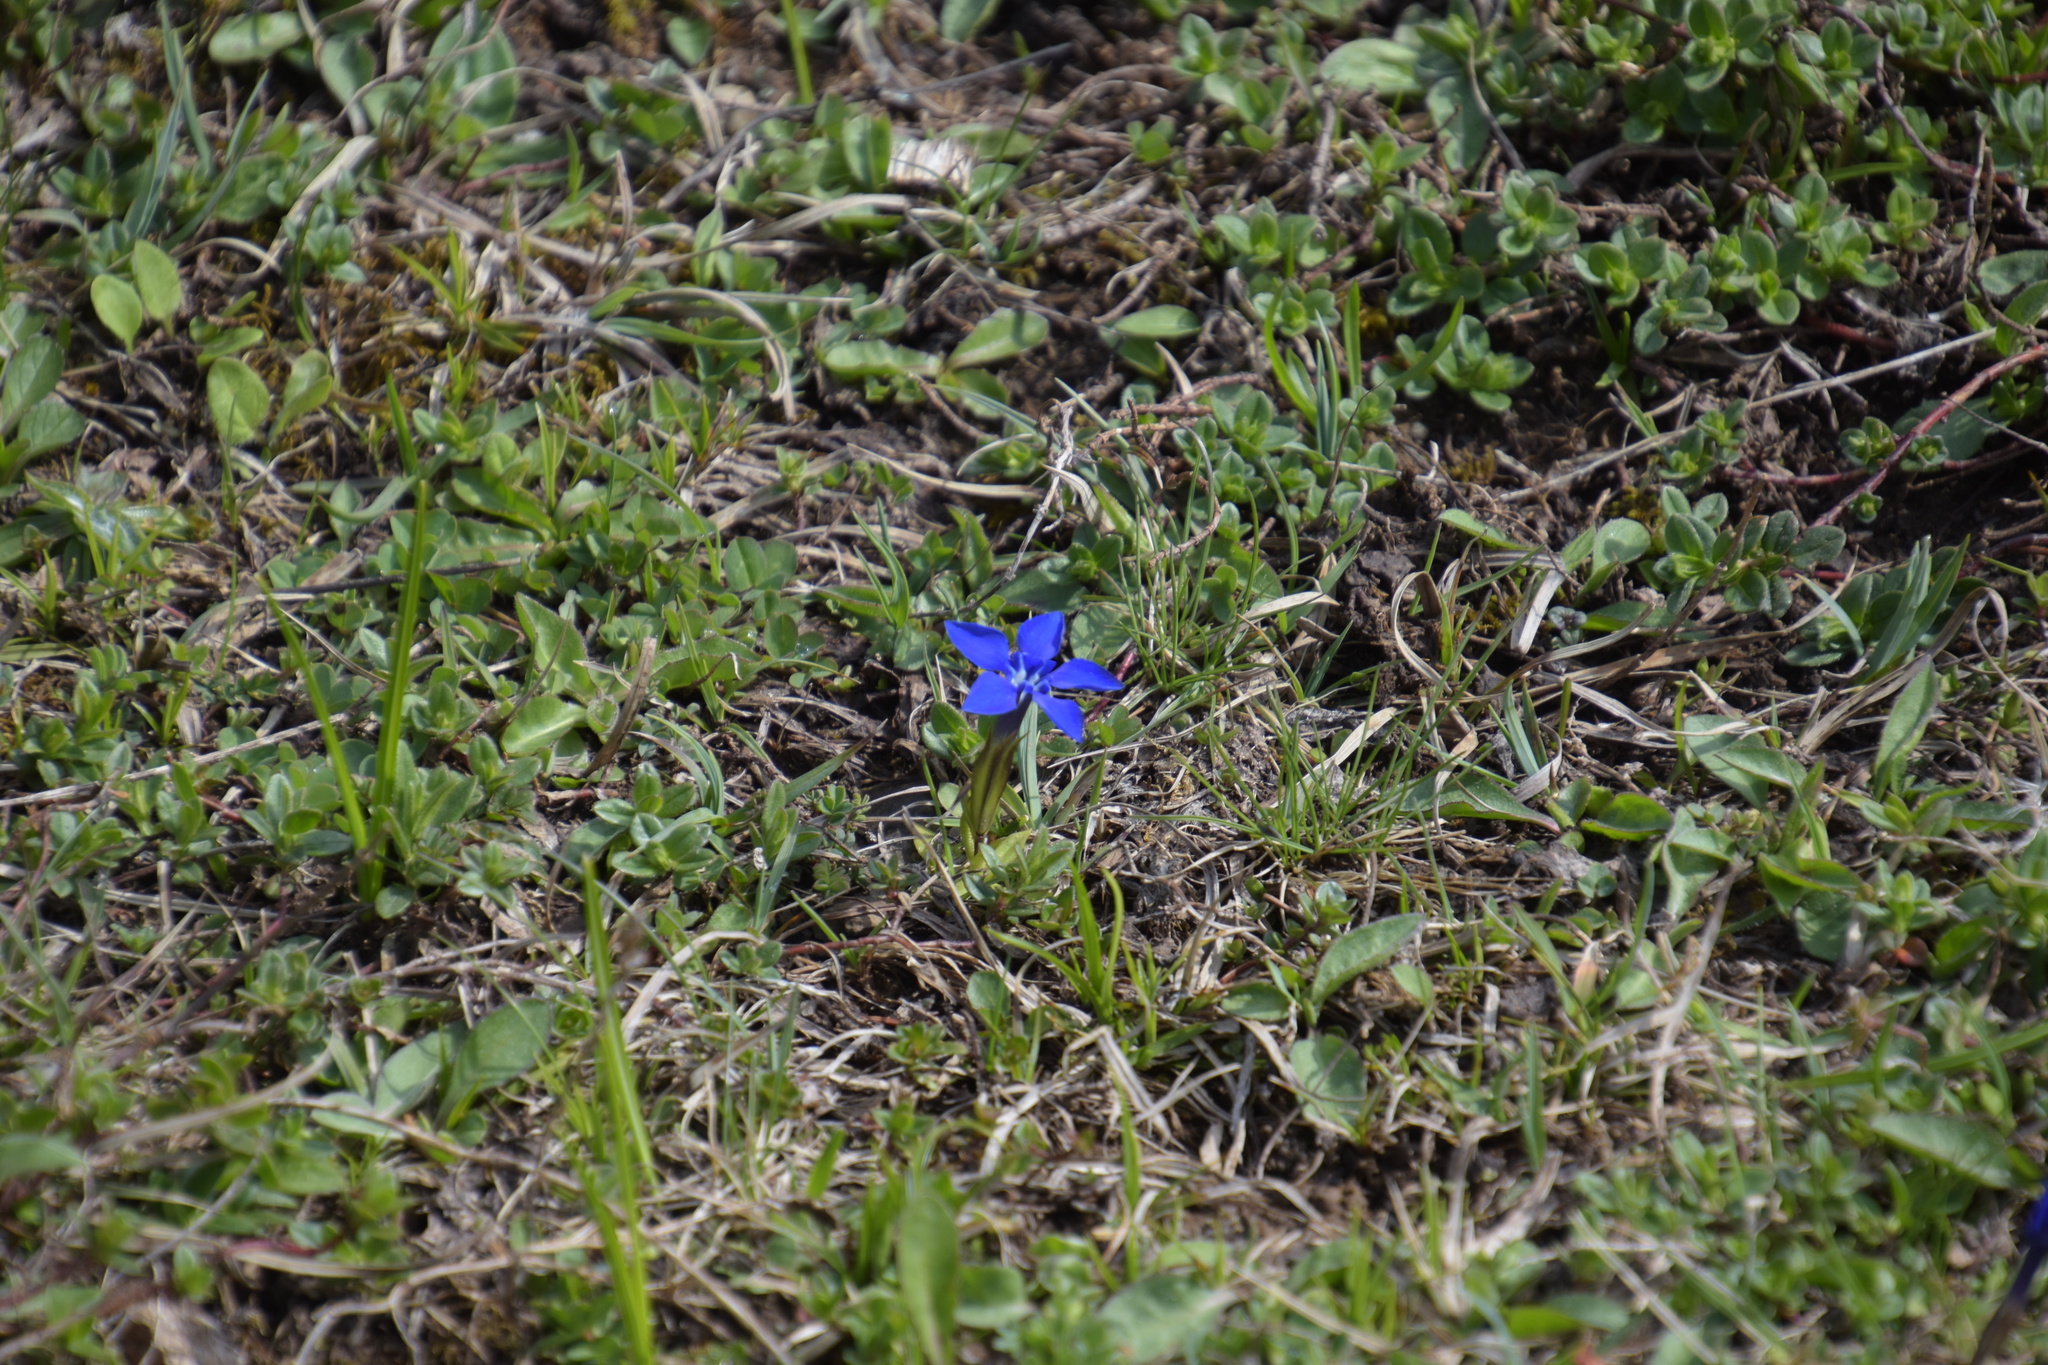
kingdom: Plantae
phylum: Tracheophyta
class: Magnoliopsida
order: Gentianales
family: Gentianaceae
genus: Gentiana
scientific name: Gentiana verna
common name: Spring gentian
